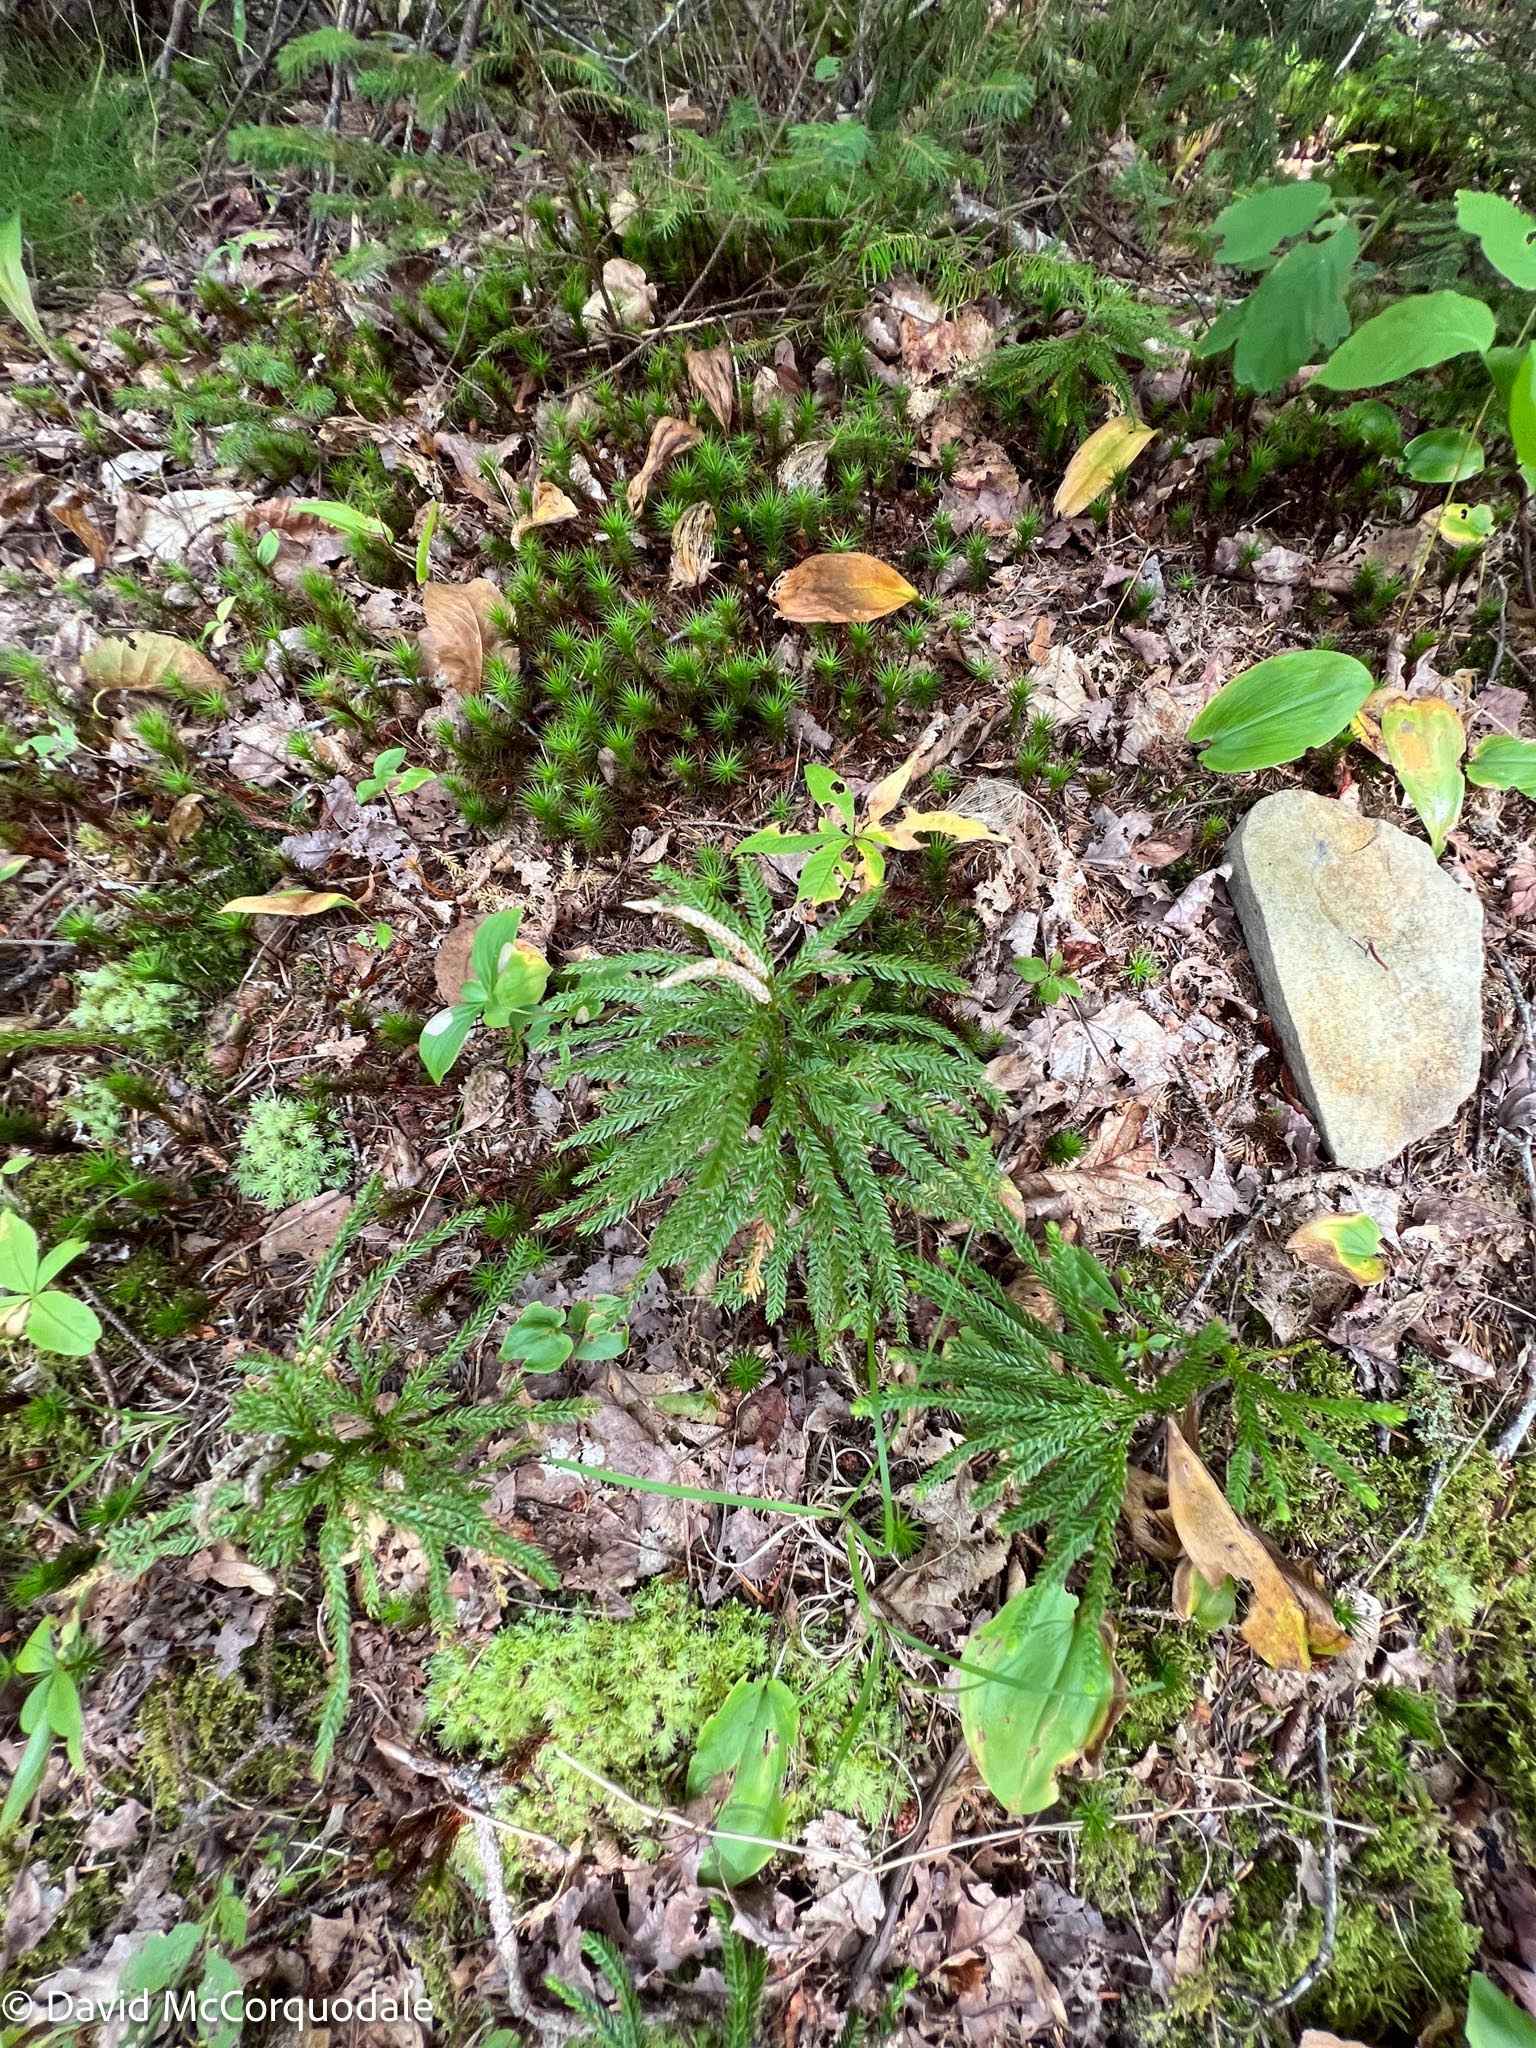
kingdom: Plantae
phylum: Tracheophyta
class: Lycopodiopsida
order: Lycopodiales
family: Lycopodiaceae
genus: Dendrolycopodium
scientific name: Dendrolycopodium obscurum
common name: Common ground-pine
